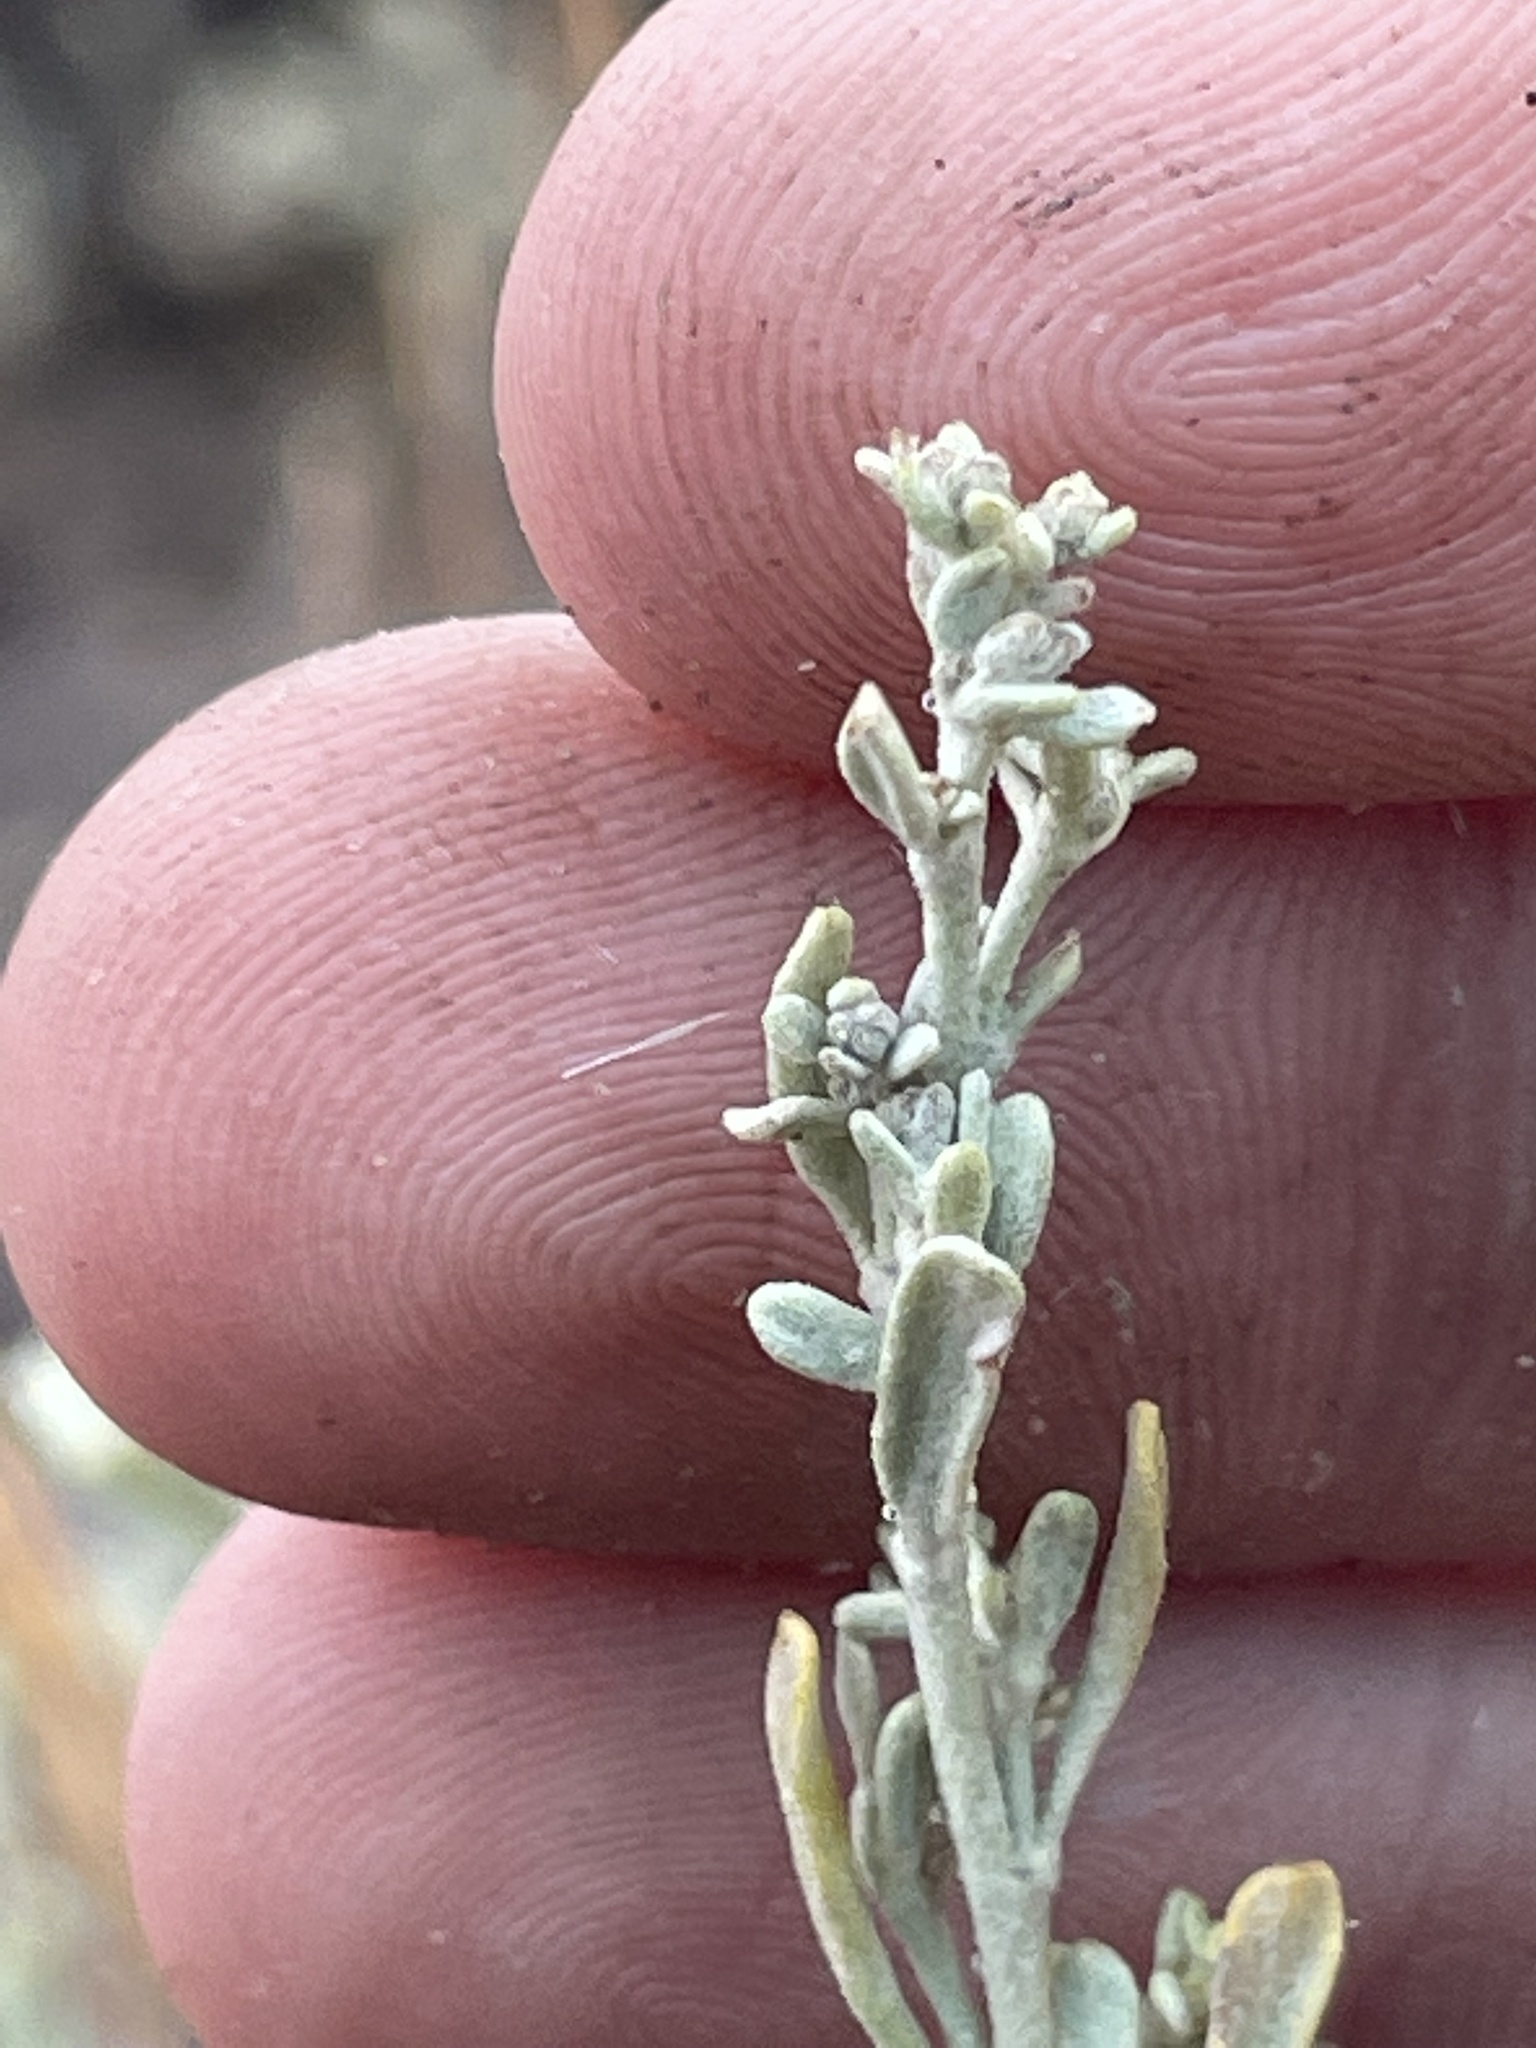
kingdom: Plantae
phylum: Tracheophyta
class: Magnoliopsida
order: Asterales
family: Asteraceae
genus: Artemisia
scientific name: Artemisia tridentata
